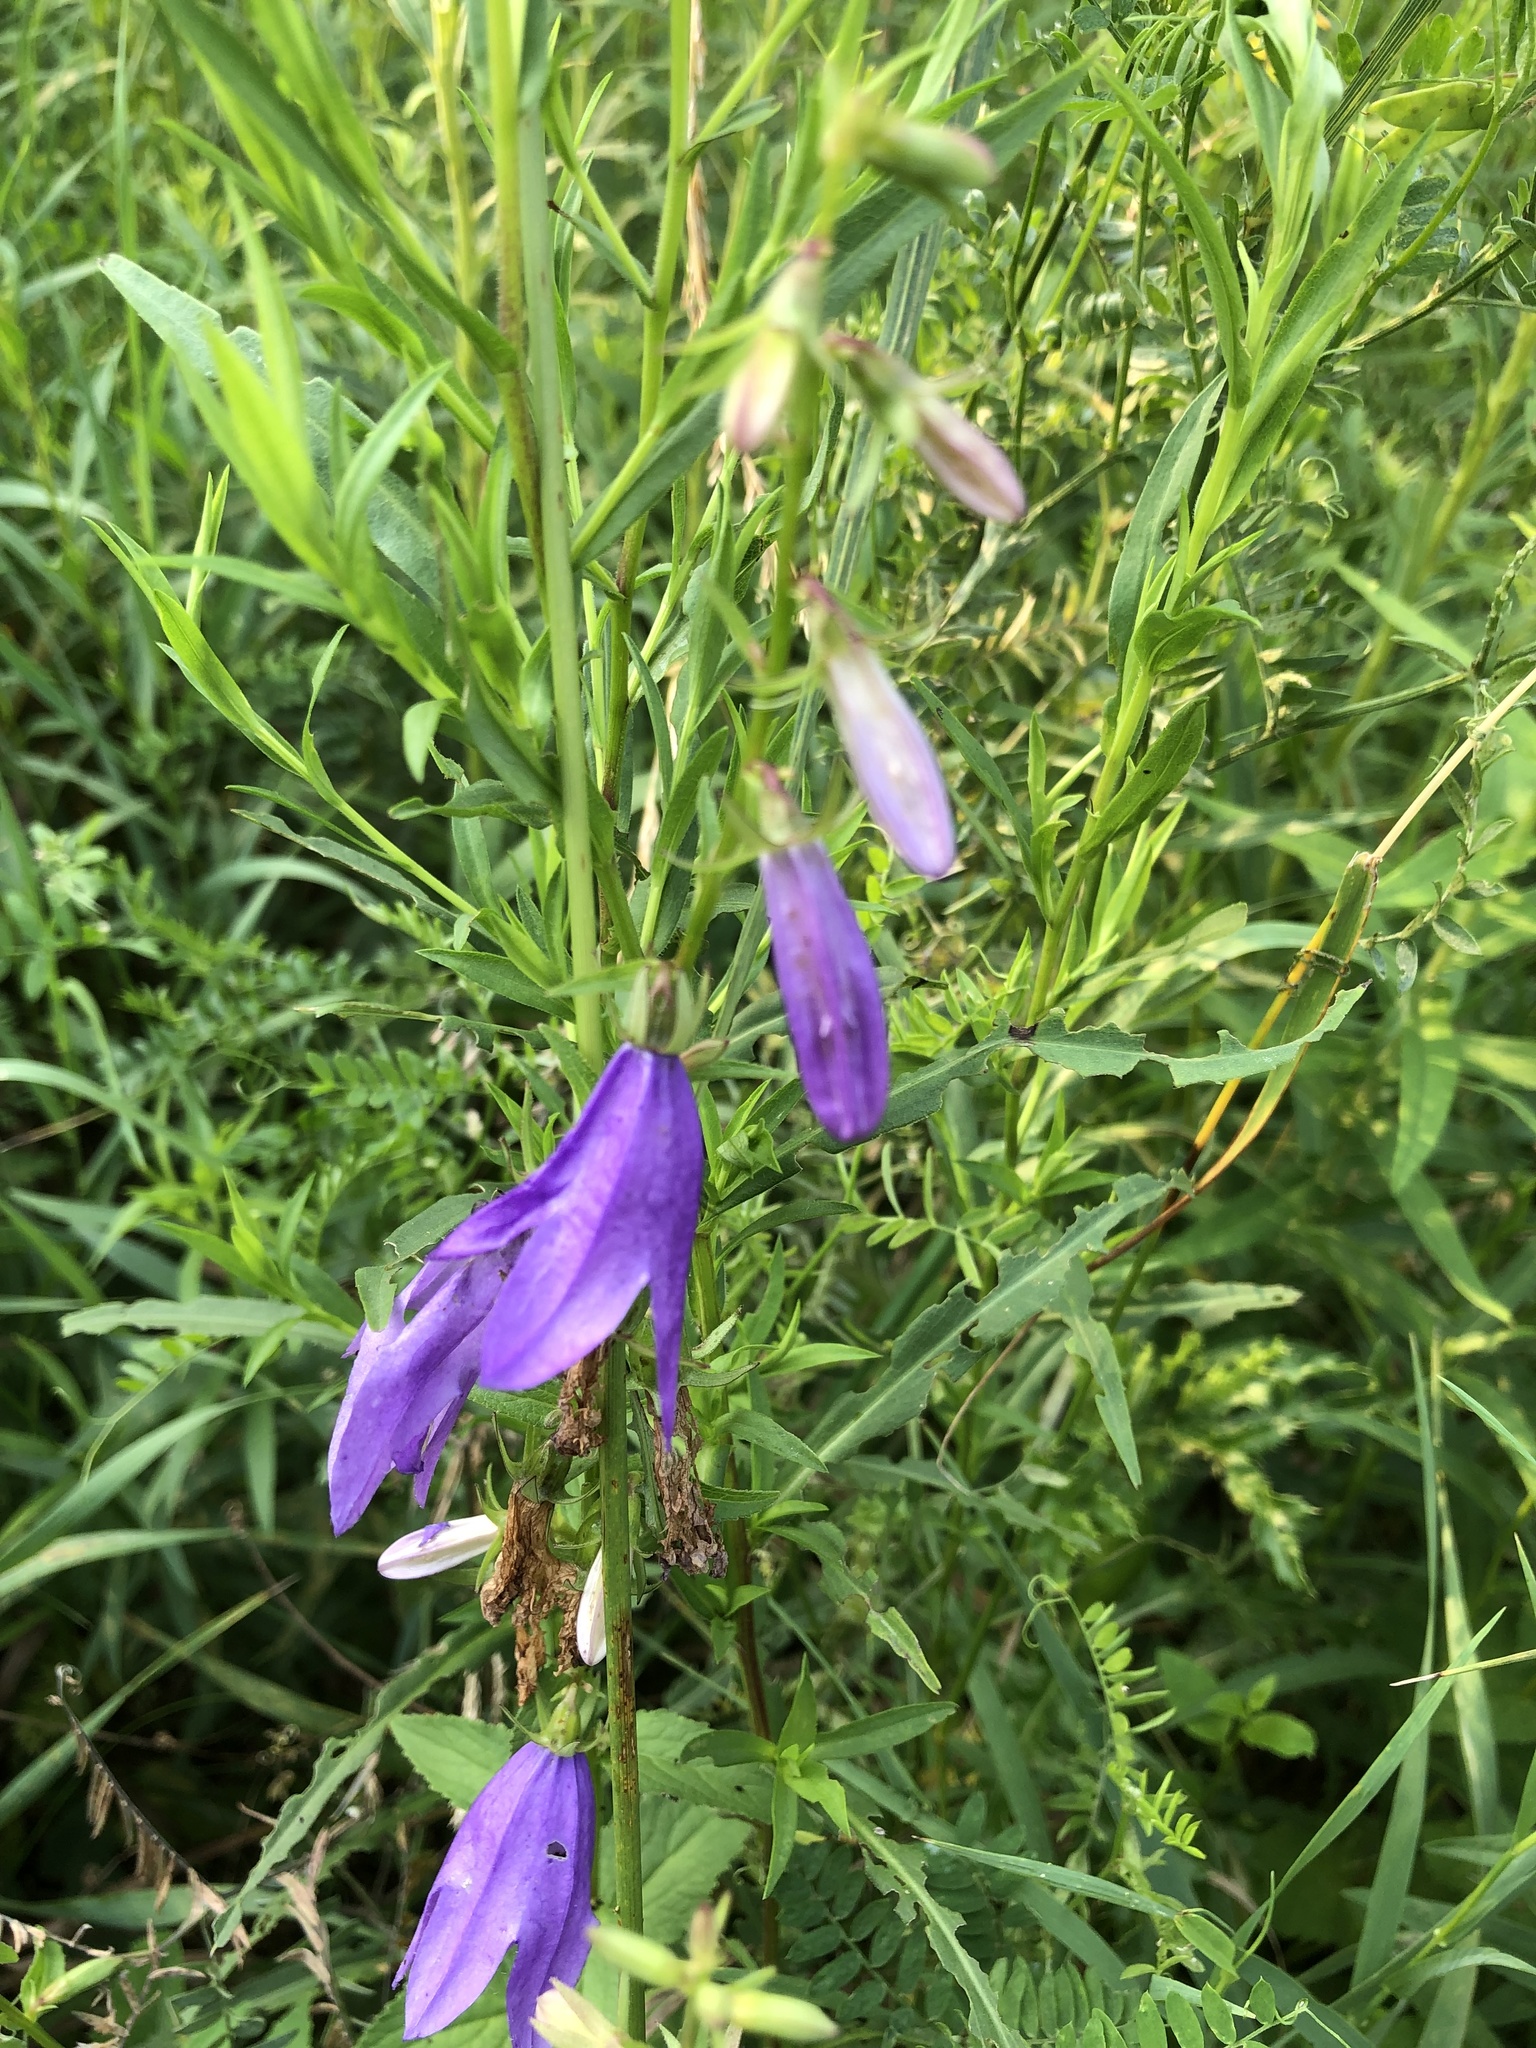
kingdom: Plantae
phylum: Tracheophyta
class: Magnoliopsida
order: Asterales
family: Campanulaceae
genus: Campanula
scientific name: Campanula rapunculoides
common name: Creeping bellflower
